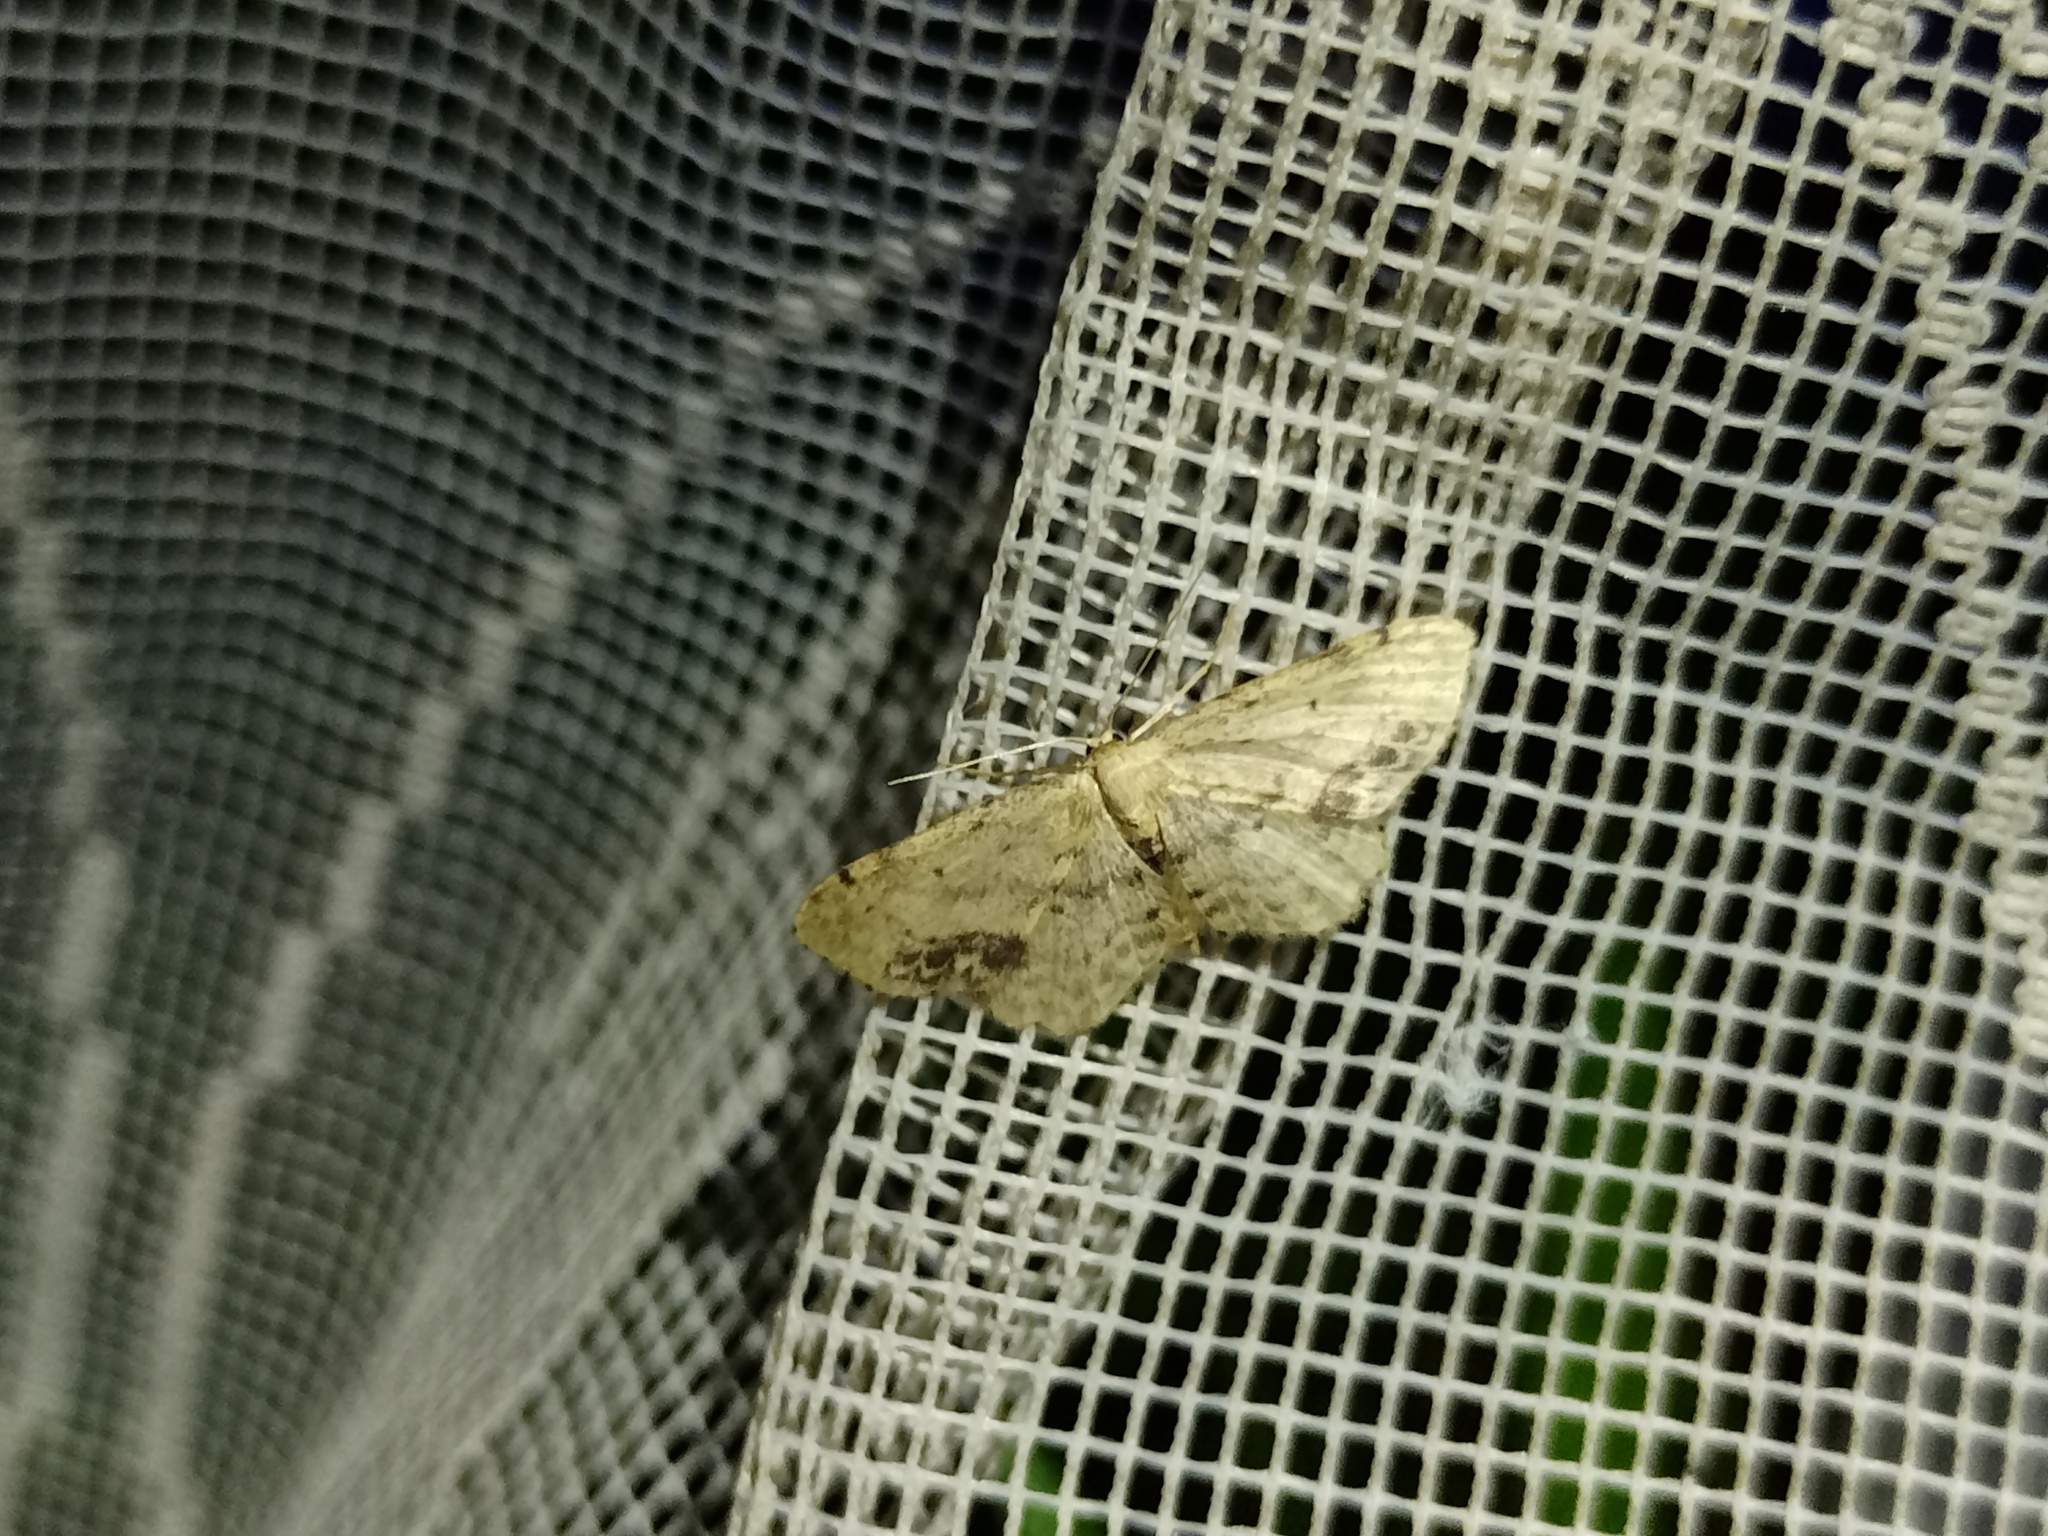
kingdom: Animalia
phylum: Arthropoda
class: Insecta
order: Lepidoptera
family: Geometridae
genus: Idaea
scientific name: Idaea dimidiata
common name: Single-dotted wave
